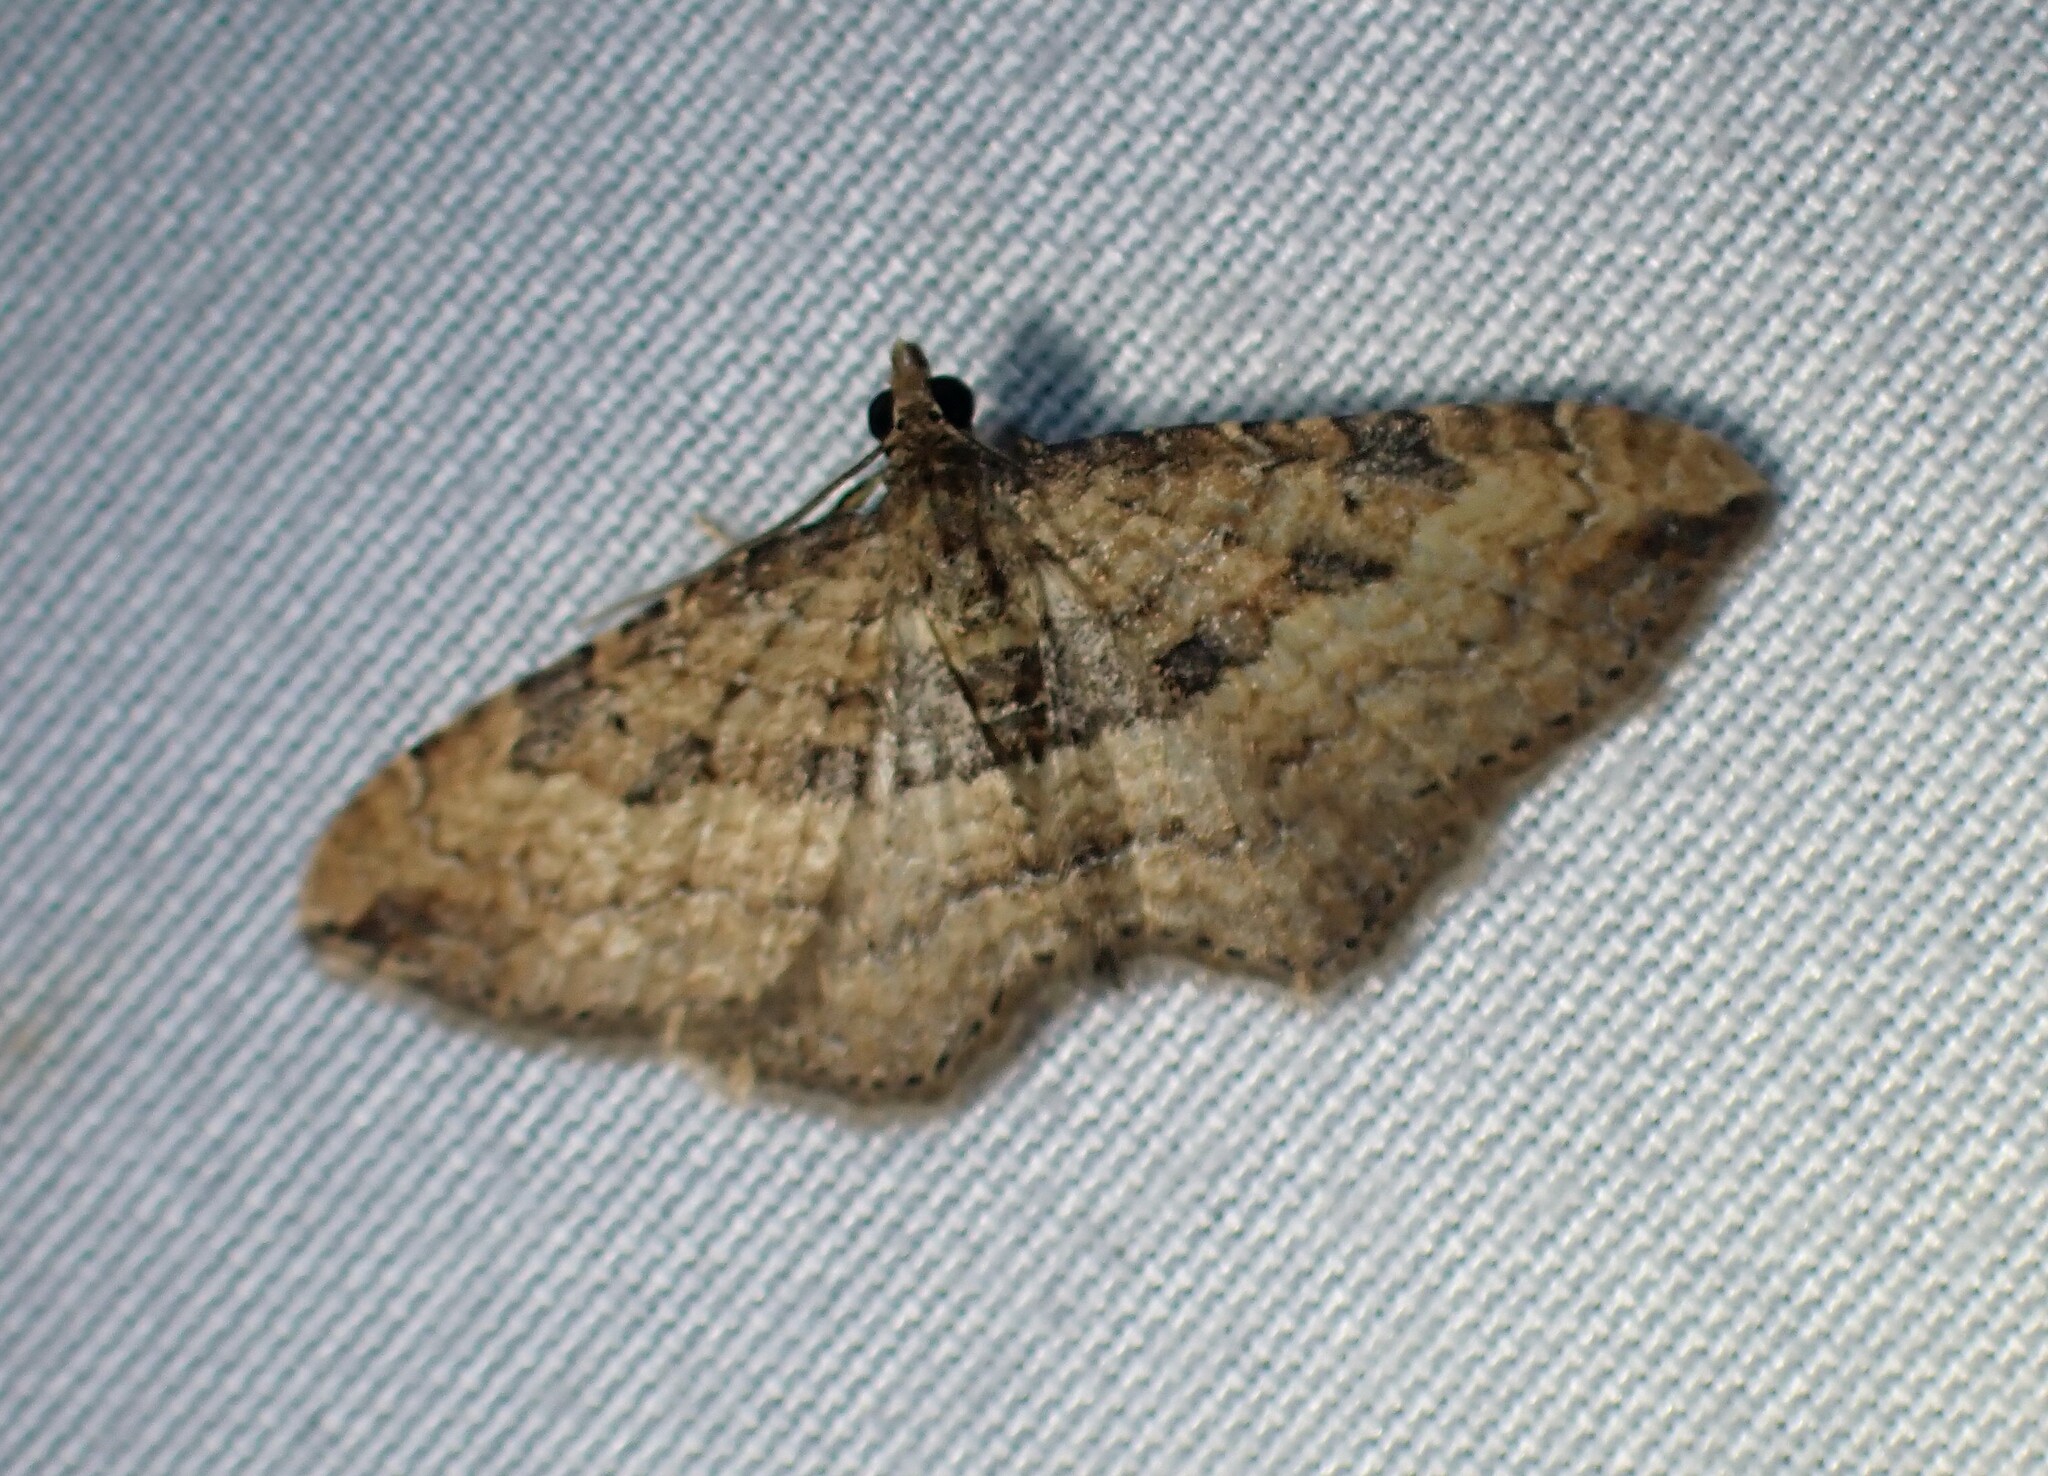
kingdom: Animalia
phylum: Arthropoda
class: Insecta
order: Lepidoptera
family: Geometridae
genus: Orthonama
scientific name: Orthonama obstipata
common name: The gem
